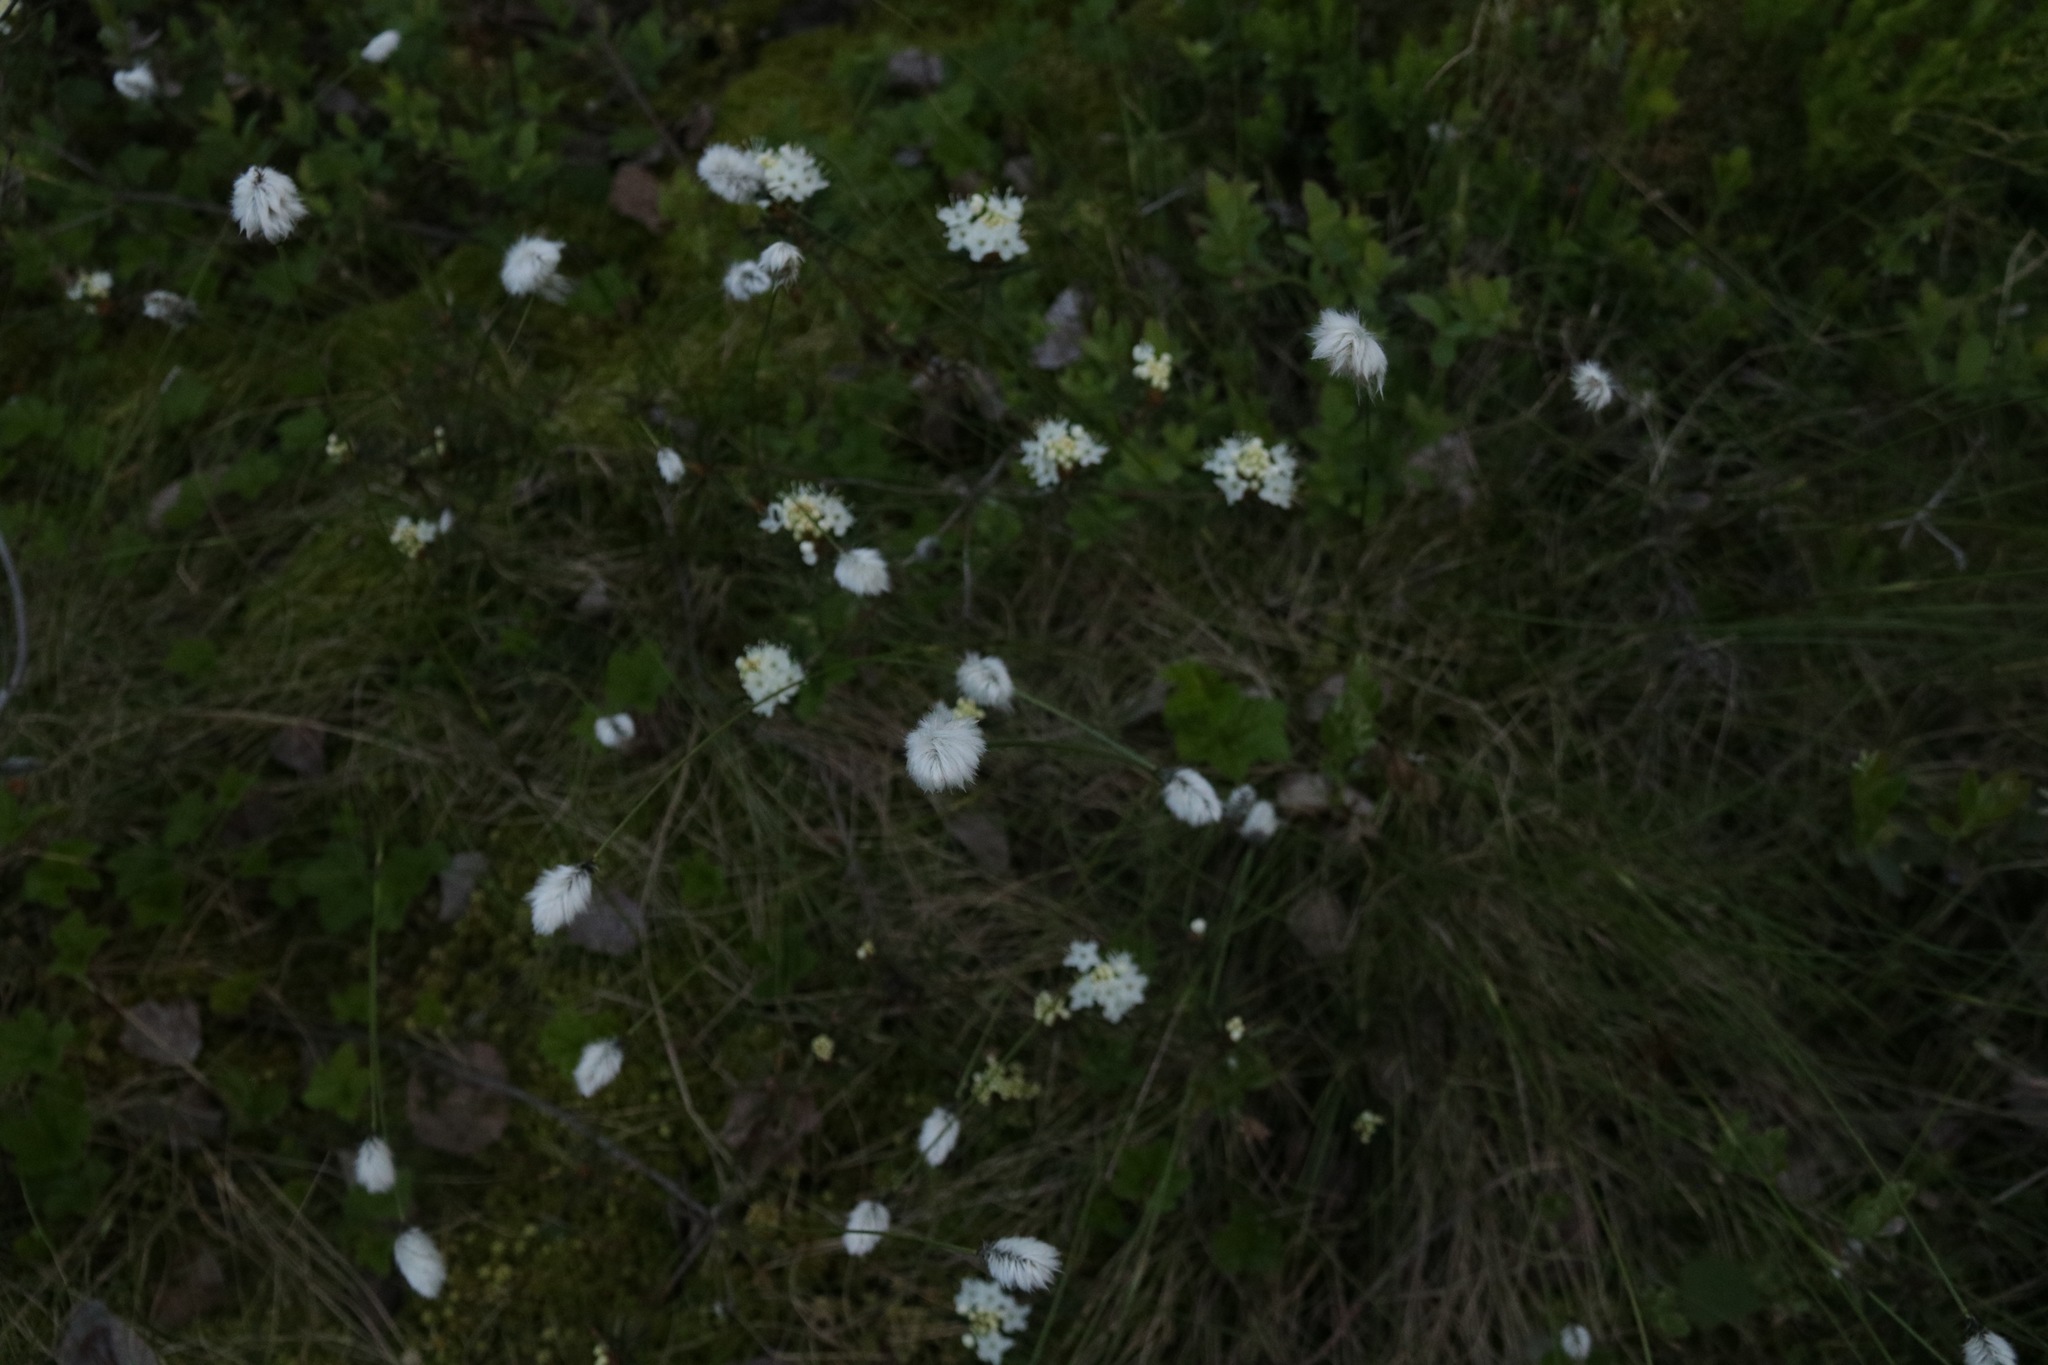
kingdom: Plantae
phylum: Tracheophyta
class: Liliopsida
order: Poales
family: Cyperaceae
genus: Eriophorum
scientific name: Eriophorum vaginatum
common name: Hare's-tail cottongrass
